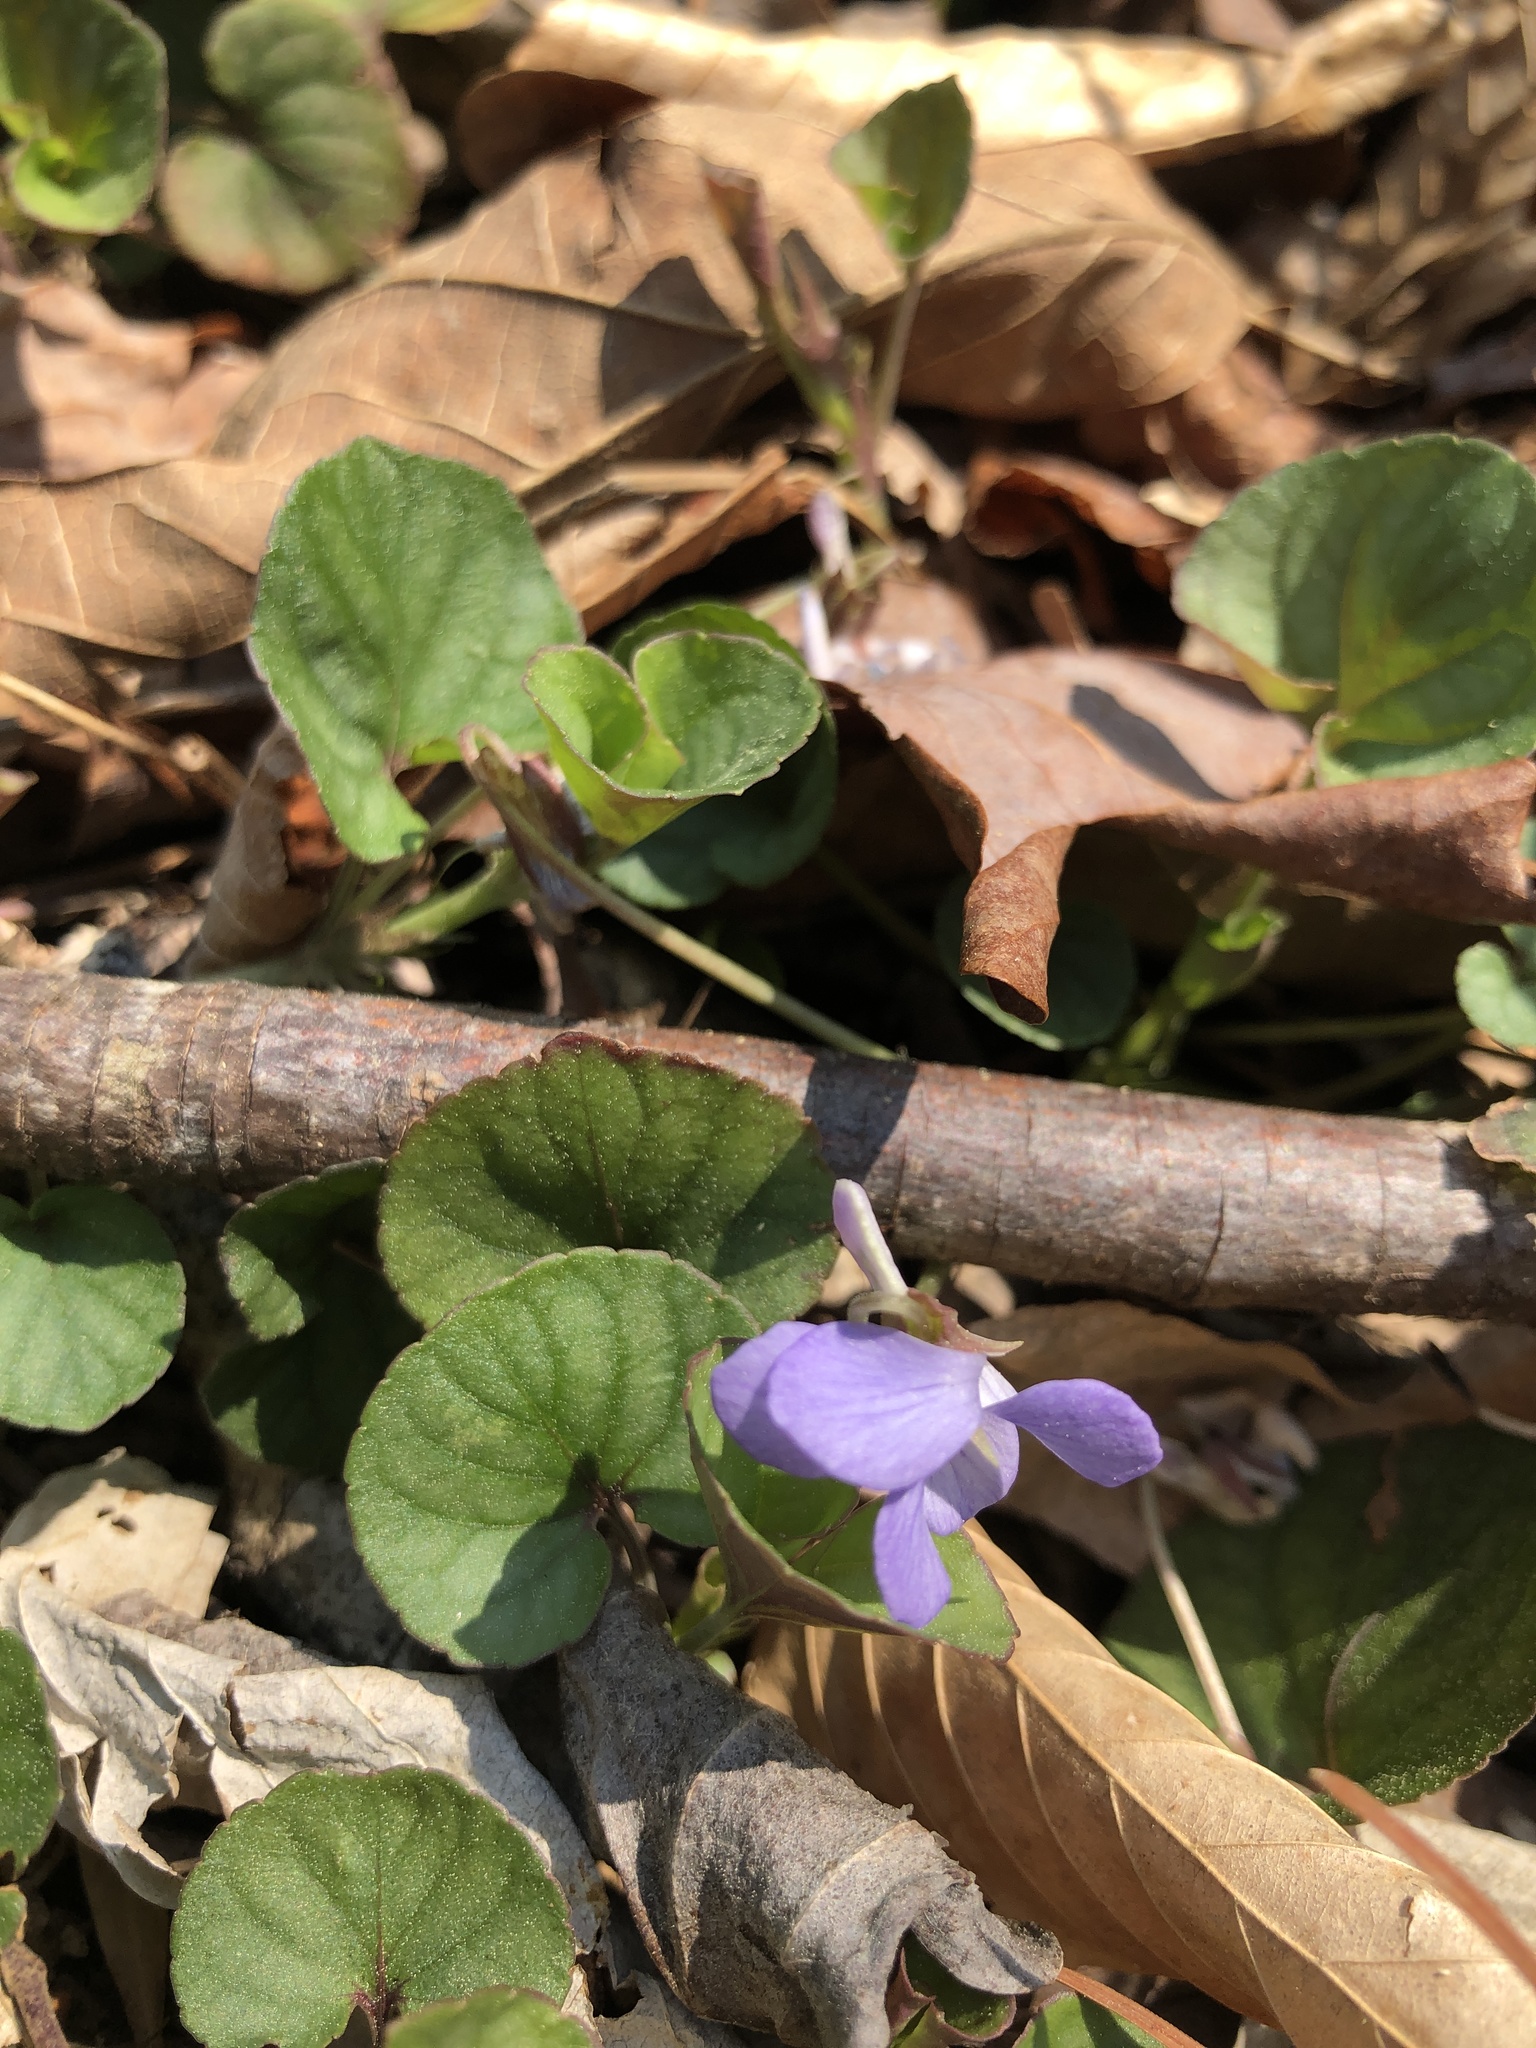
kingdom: Plantae
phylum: Tracheophyta
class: Magnoliopsida
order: Malpighiales
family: Violaceae
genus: Viola
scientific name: Viola walteri
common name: Prostrate southern violet
